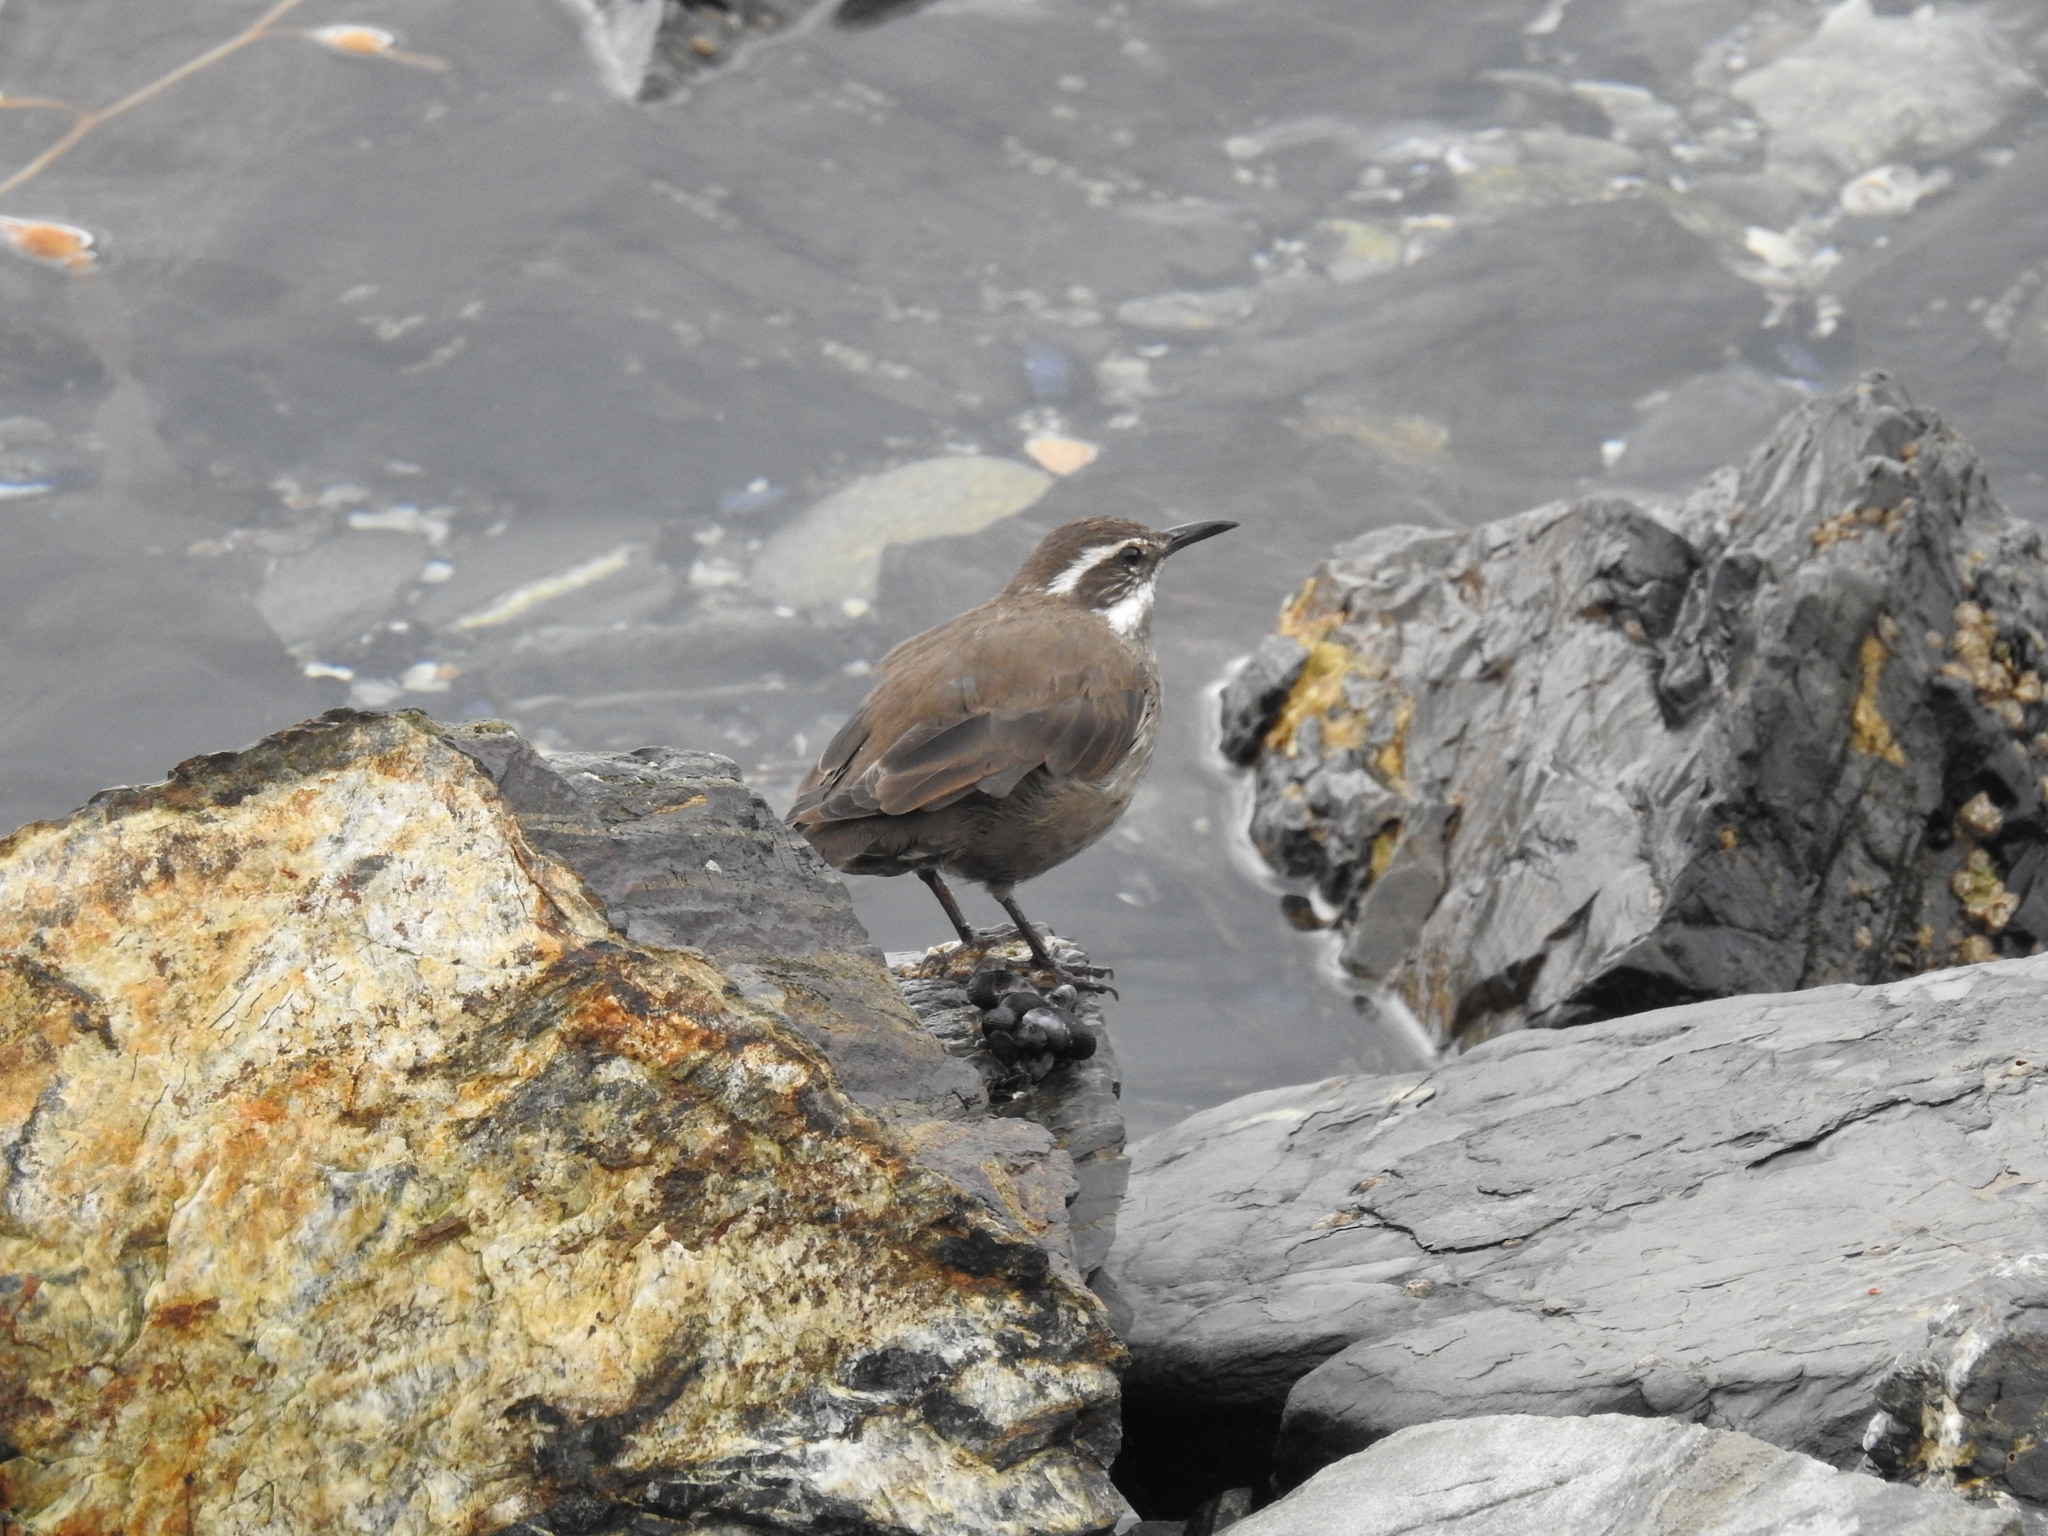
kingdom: Animalia
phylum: Chordata
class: Aves
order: Passeriformes
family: Furnariidae
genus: Cinclodes
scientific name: Cinclodes patagonicus
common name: Dark-bellied cinclodes
